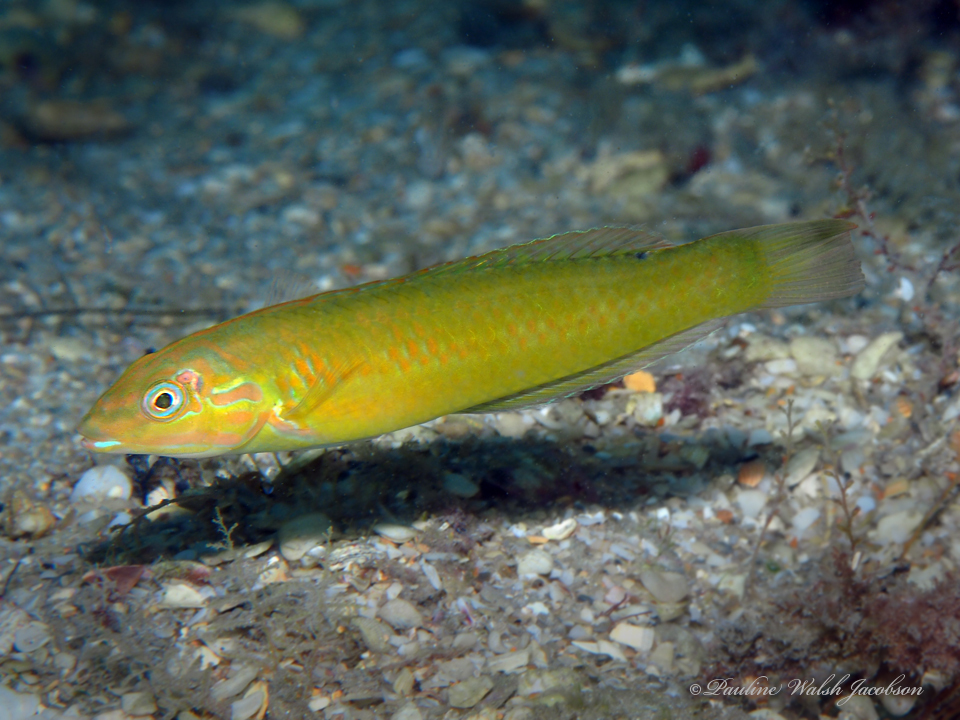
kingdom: Animalia
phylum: Chordata
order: Perciformes
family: Labridae
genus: Halichoeres
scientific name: Halichoeres poeyi
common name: Blackear wrasse
